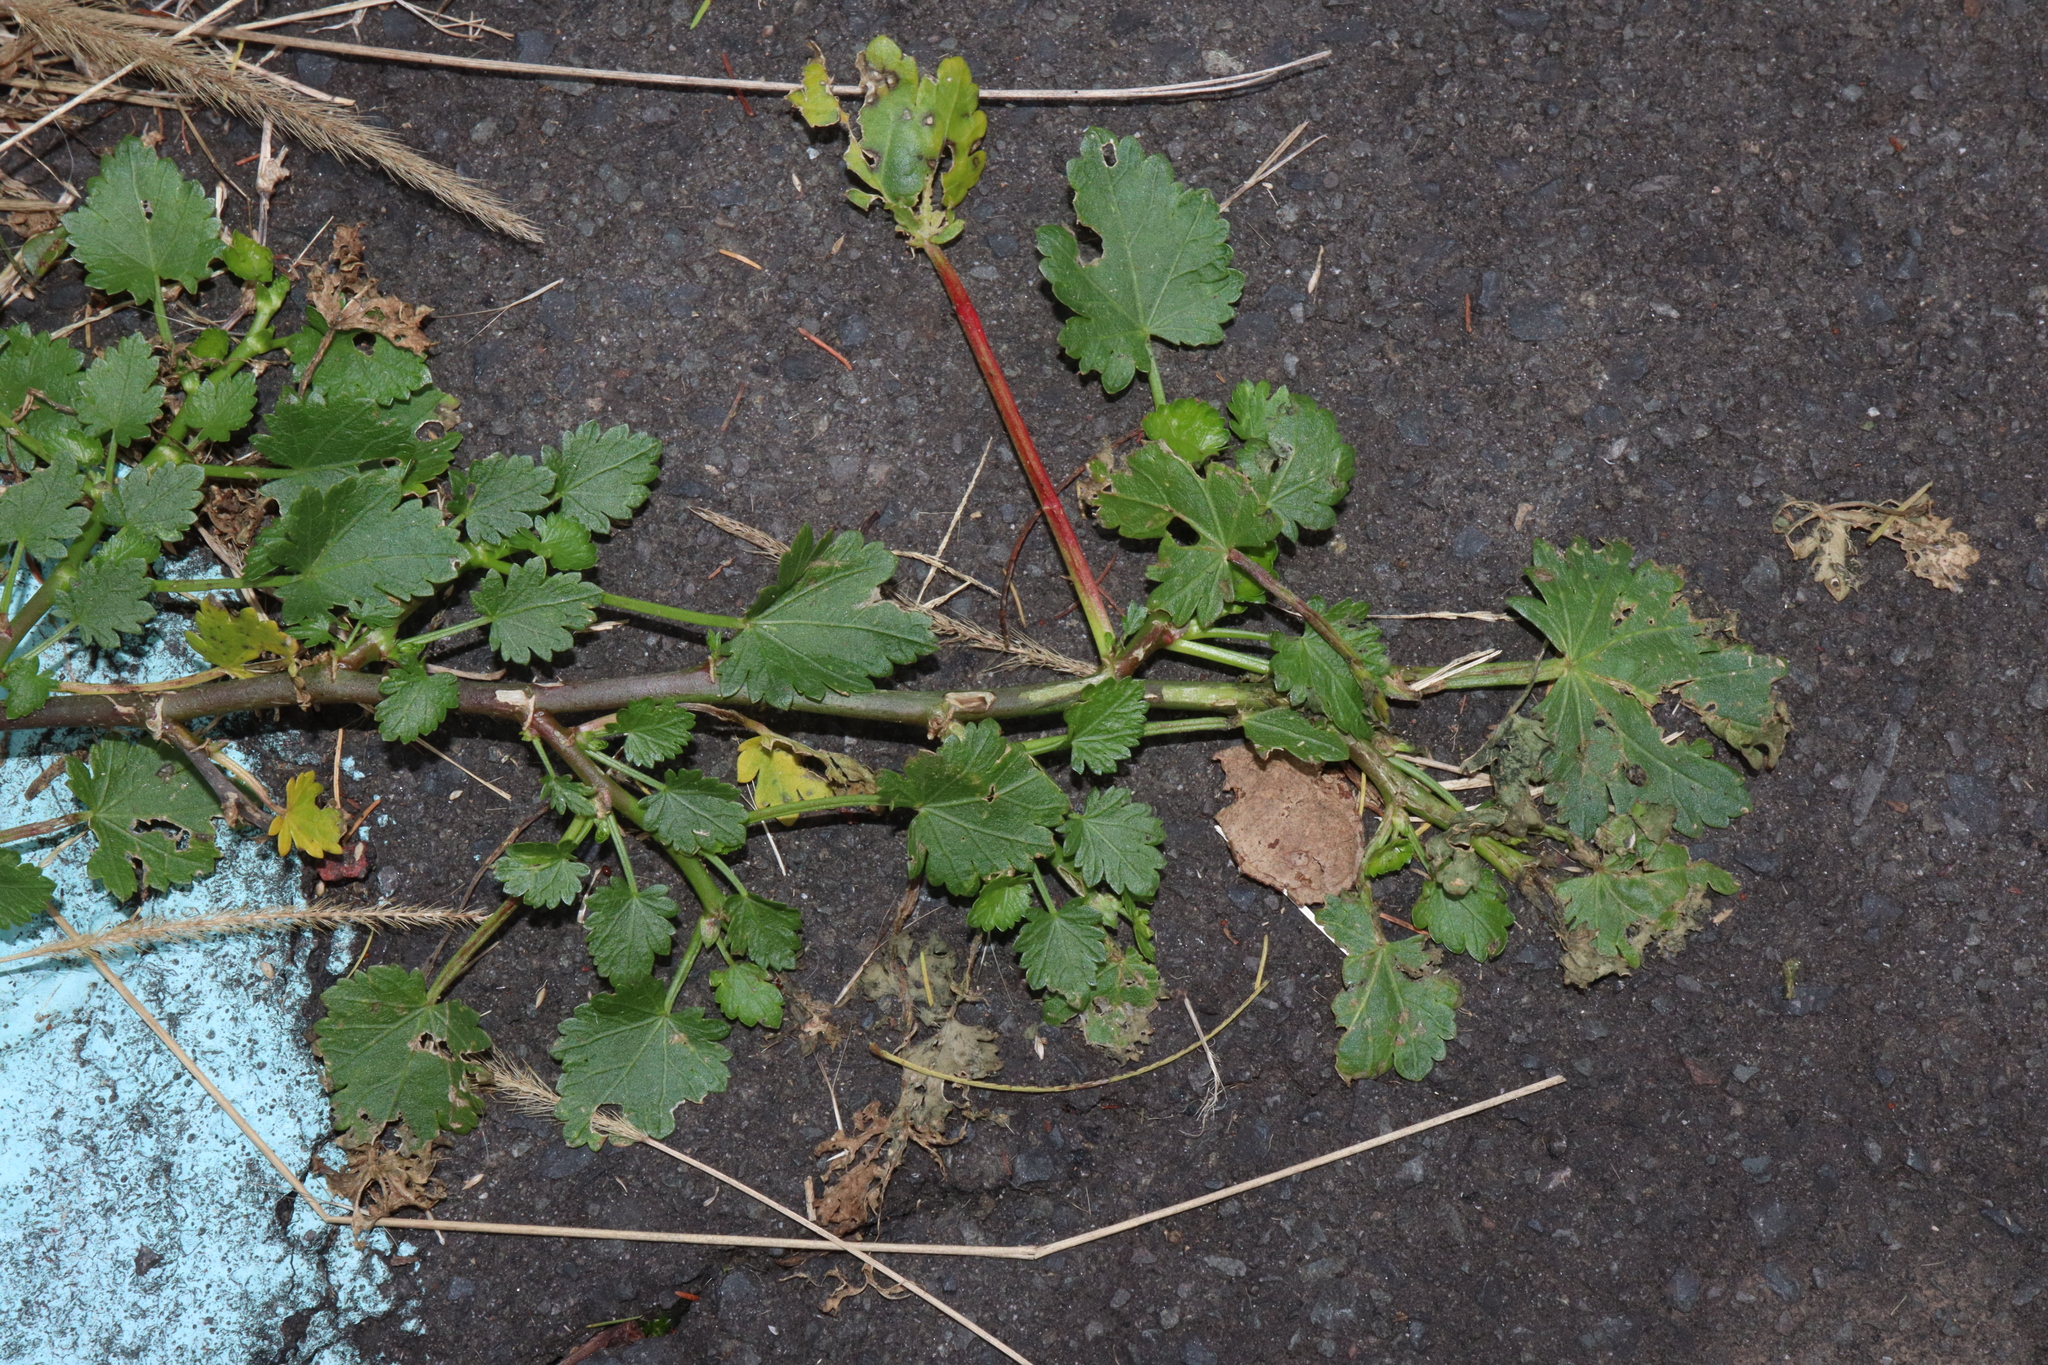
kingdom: Plantae
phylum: Tracheophyta
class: Magnoliopsida
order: Malvales
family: Malvaceae
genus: Modiola
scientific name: Modiola caroliniana
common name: Carolina bristlemallow
